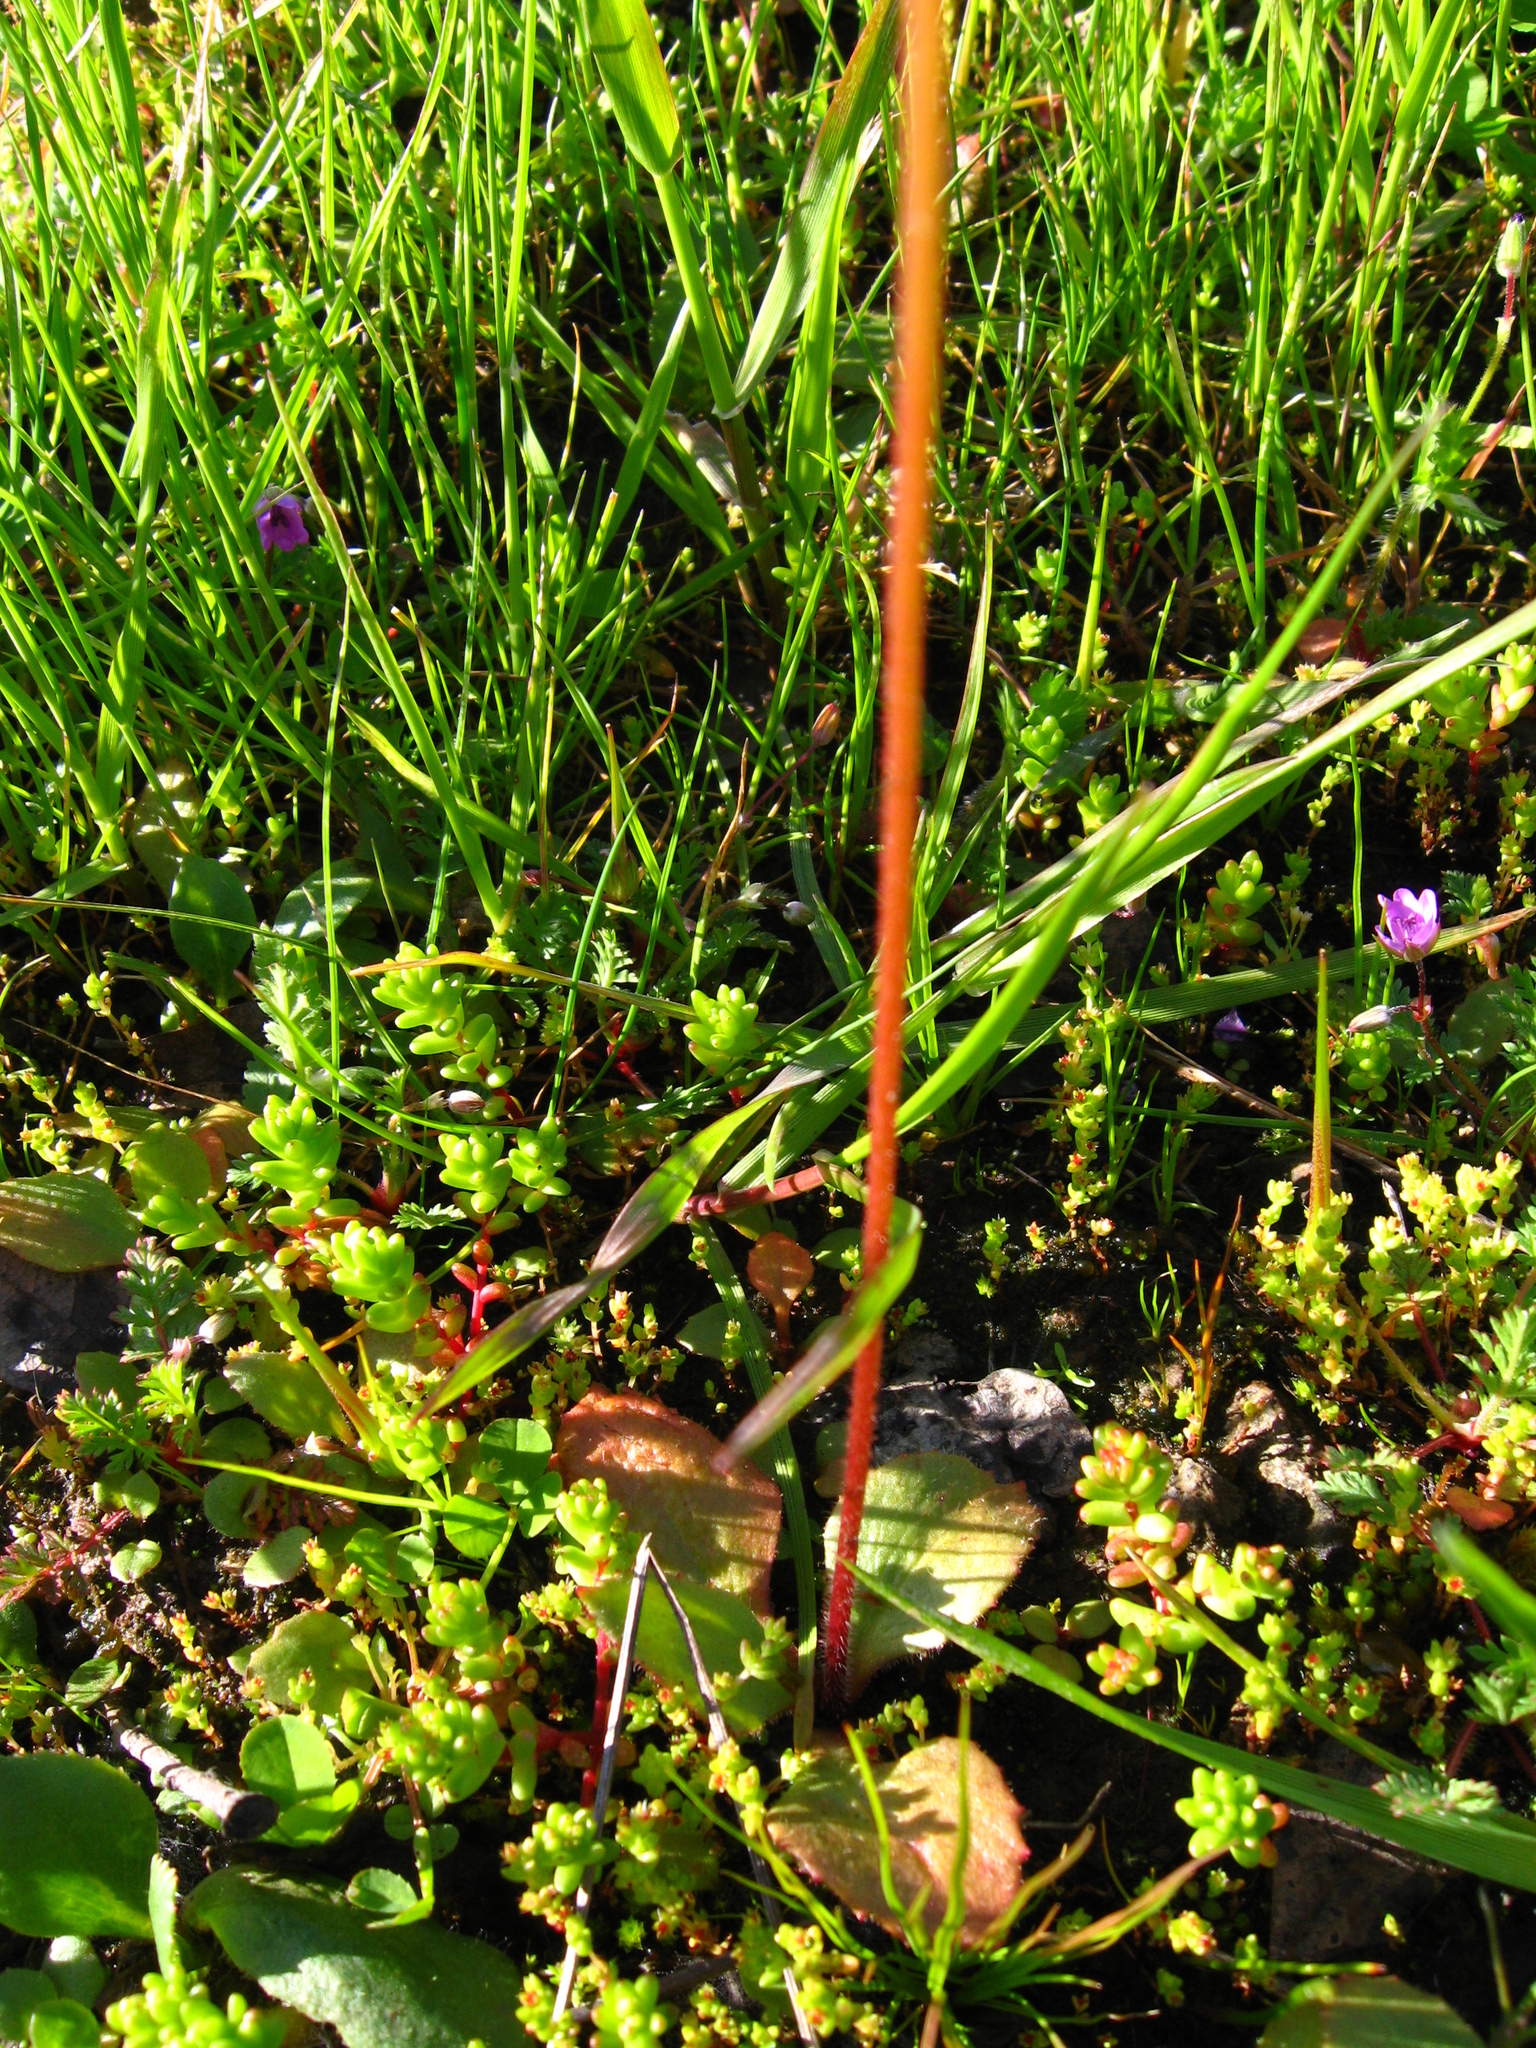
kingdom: Plantae
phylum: Tracheophyta
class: Magnoliopsida
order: Saxifragales
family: Saxifragaceae
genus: Micranthes
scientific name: Micranthes californica
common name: California saxifrage
